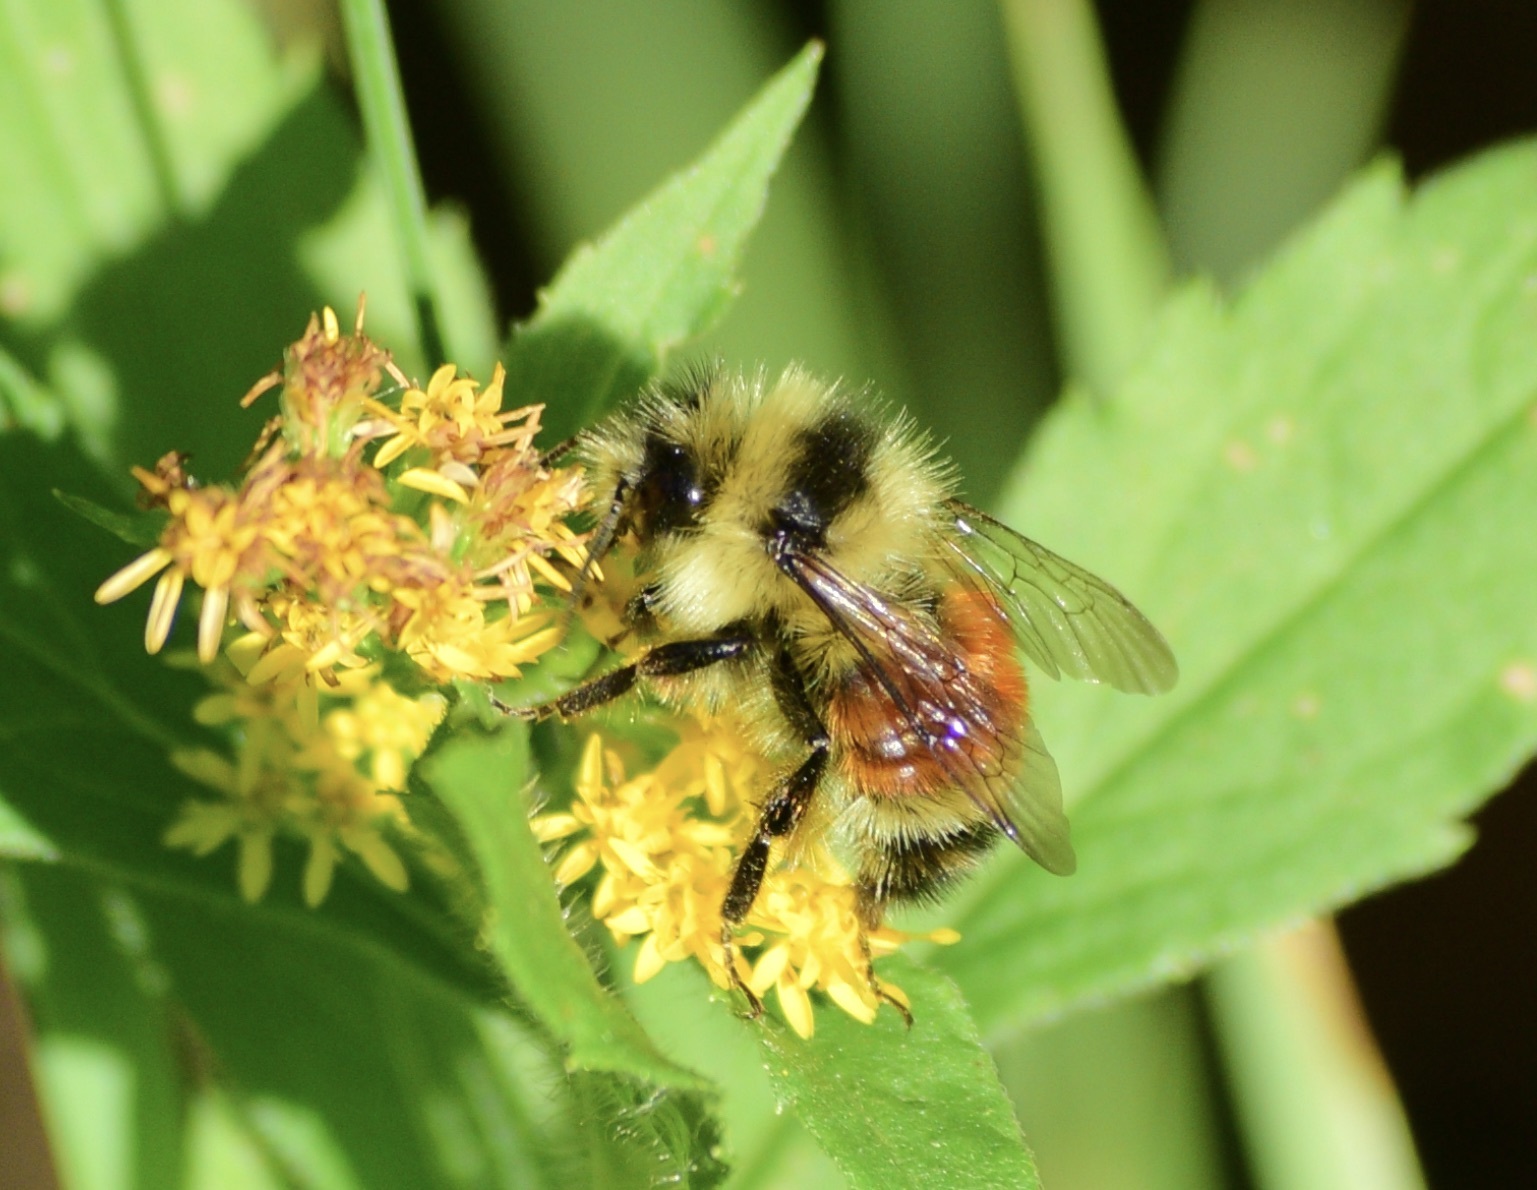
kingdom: Animalia
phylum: Arthropoda
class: Insecta
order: Hymenoptera
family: Apidae
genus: Bombus
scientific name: Bombus ternarius
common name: Tri-colored bumble bee
